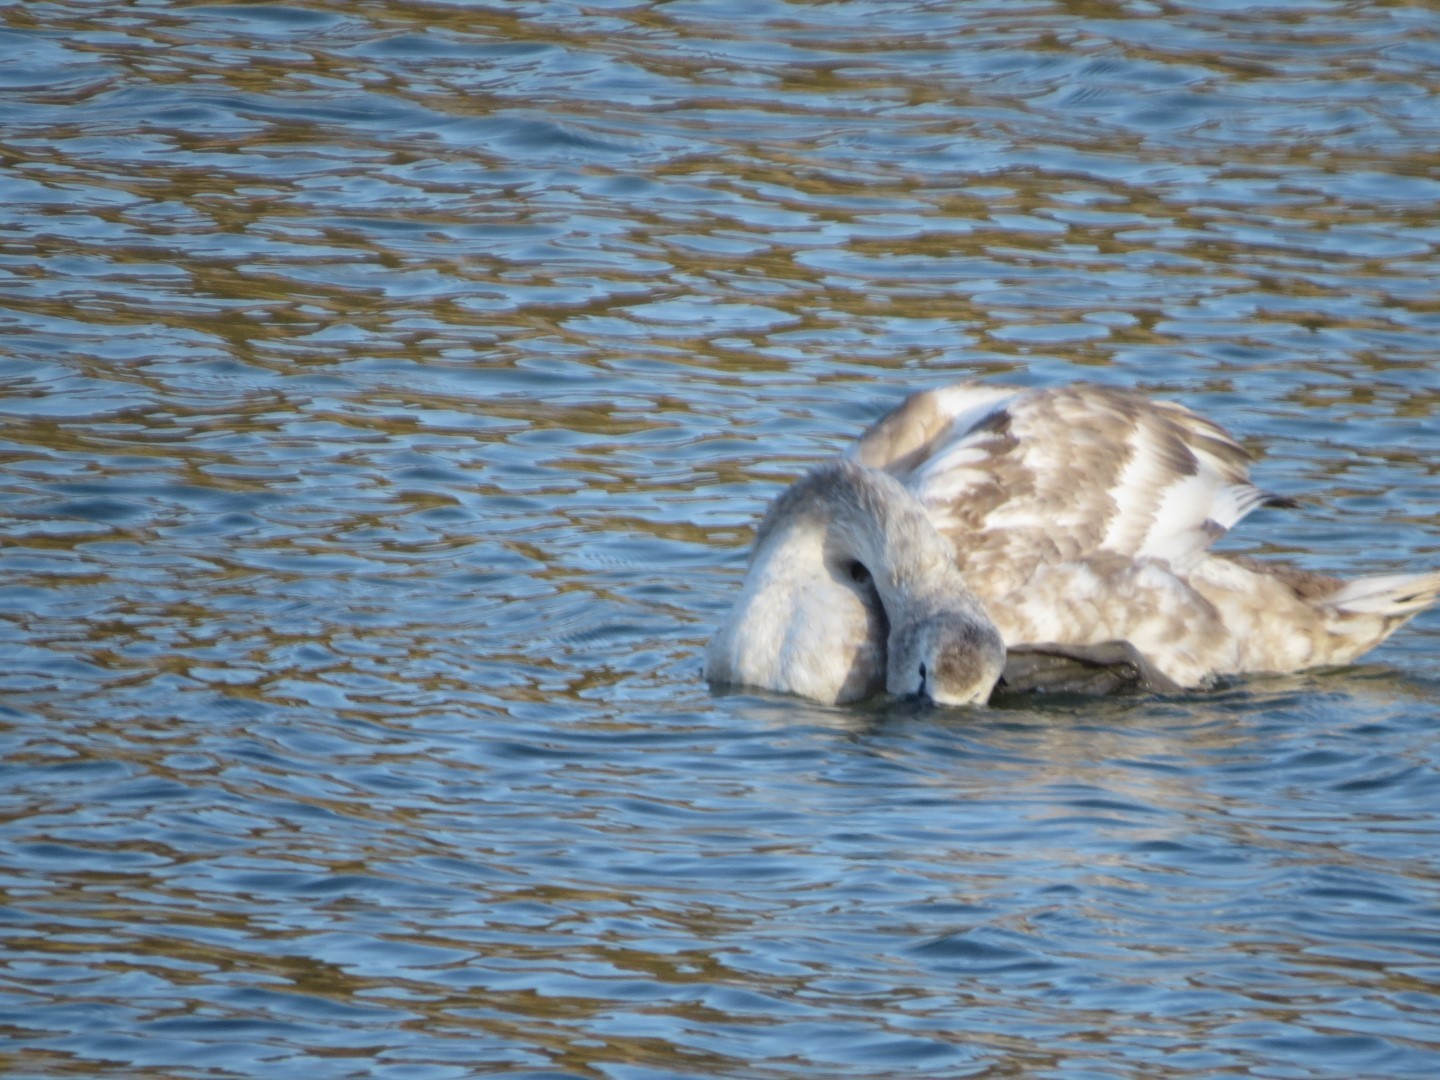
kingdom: Animalia
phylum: Chordata
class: Aves
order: Anseriformes
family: Anatidae
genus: Cygnus
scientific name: Cygnus olor
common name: Mute swan
